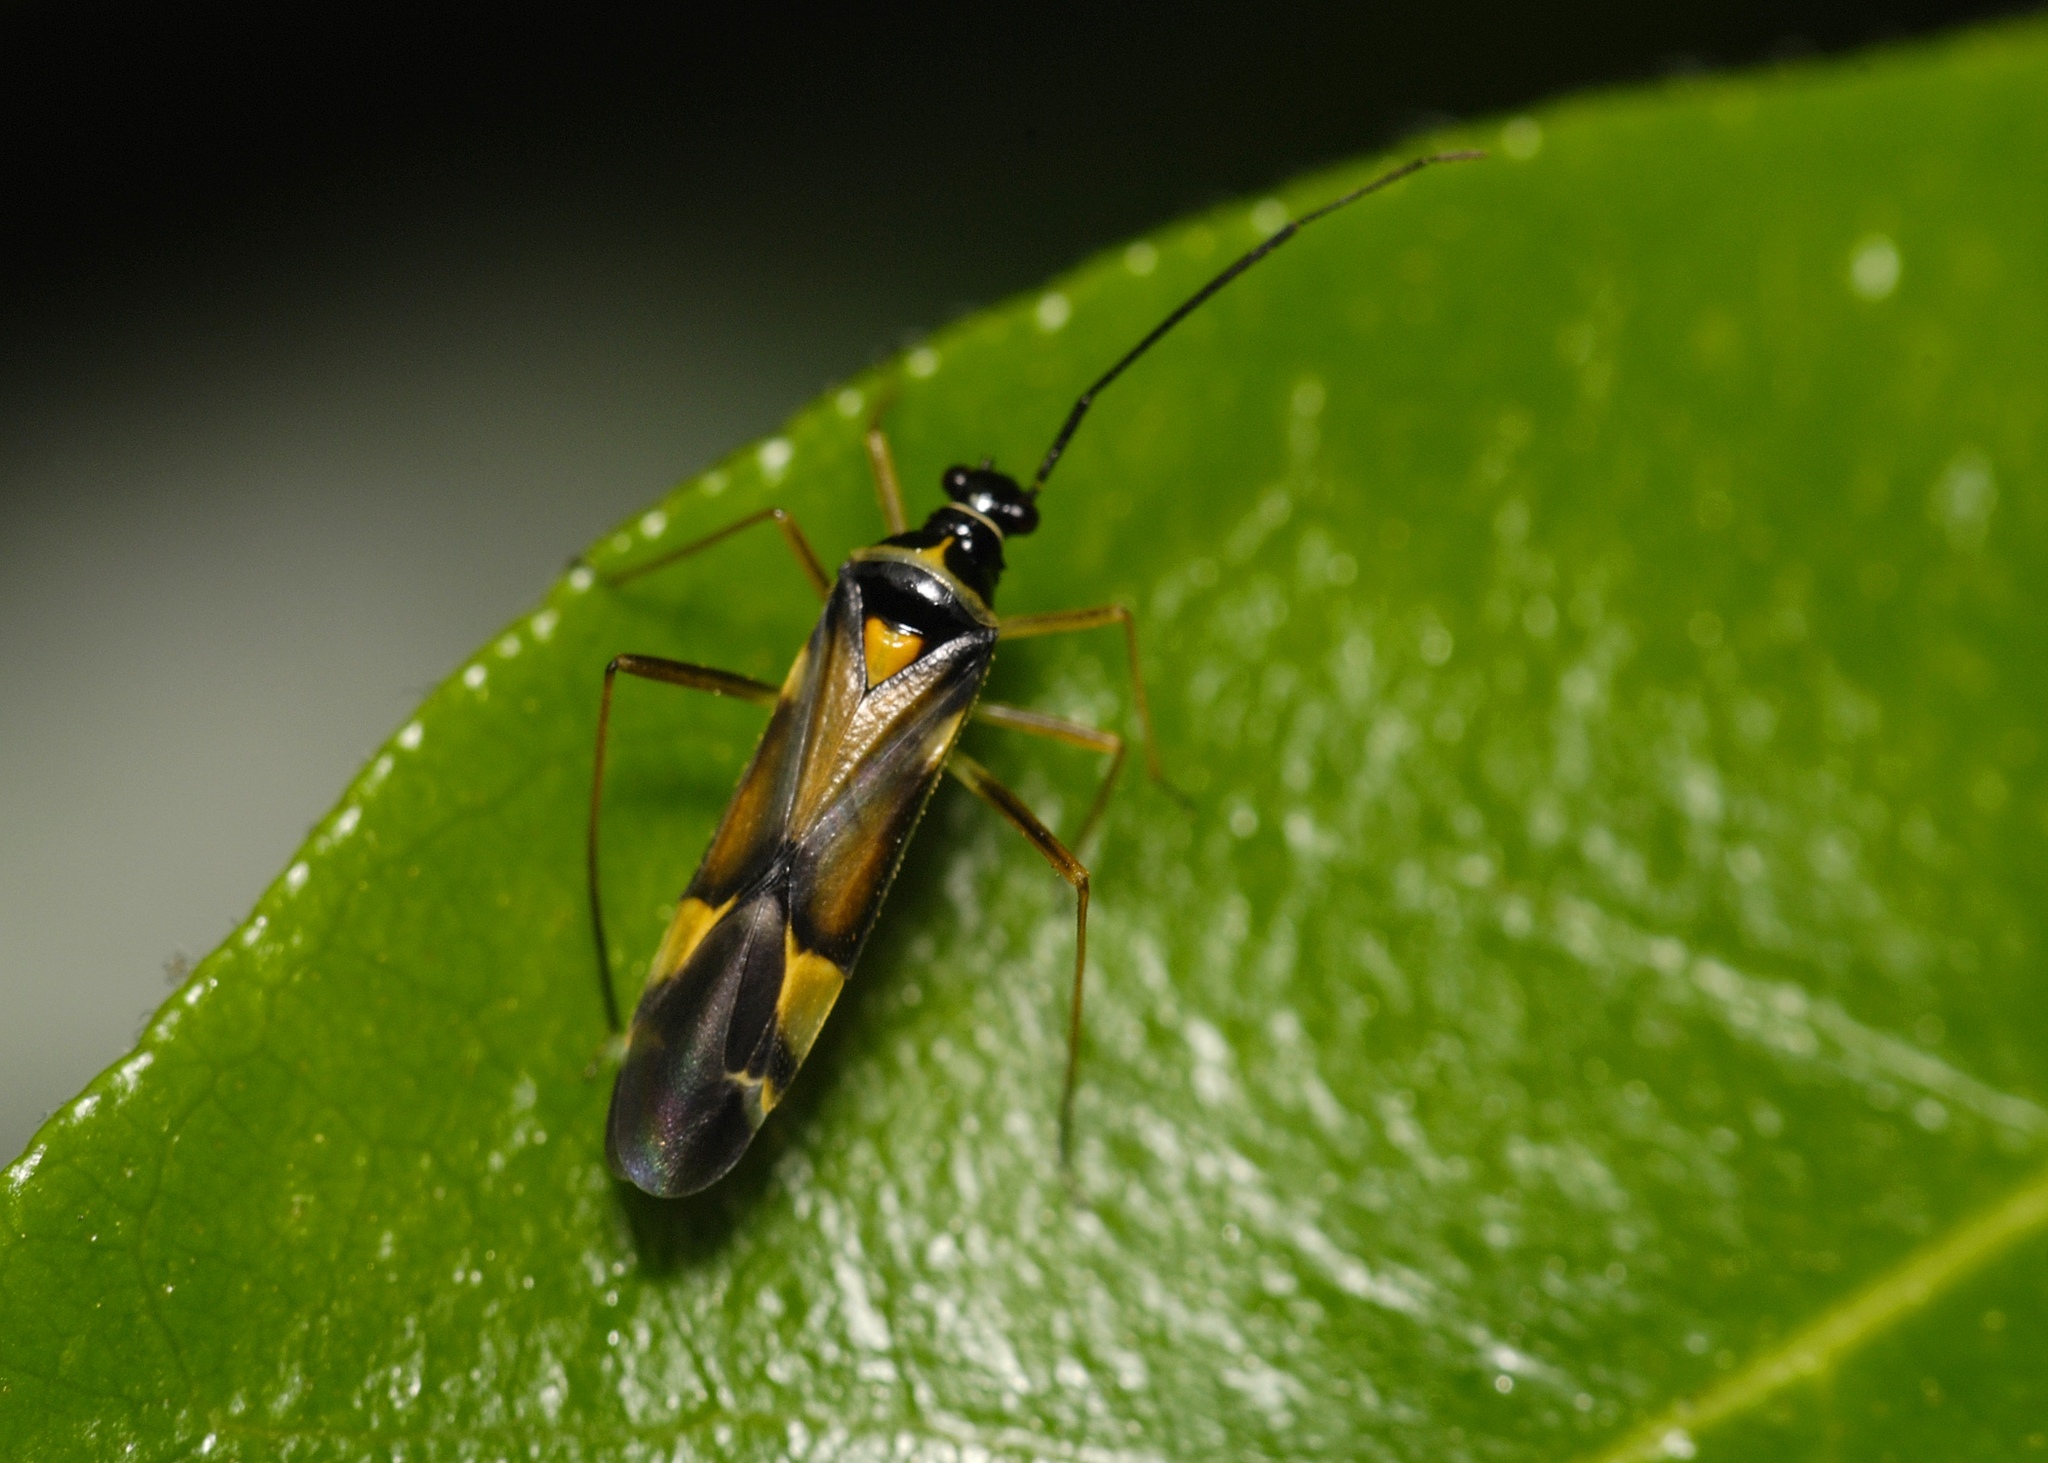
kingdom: Animalia
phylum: Arthropoda
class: Insecta
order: Hemiptera
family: Miridae
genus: Cyllecoris
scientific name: Cyllecoris histrionius
